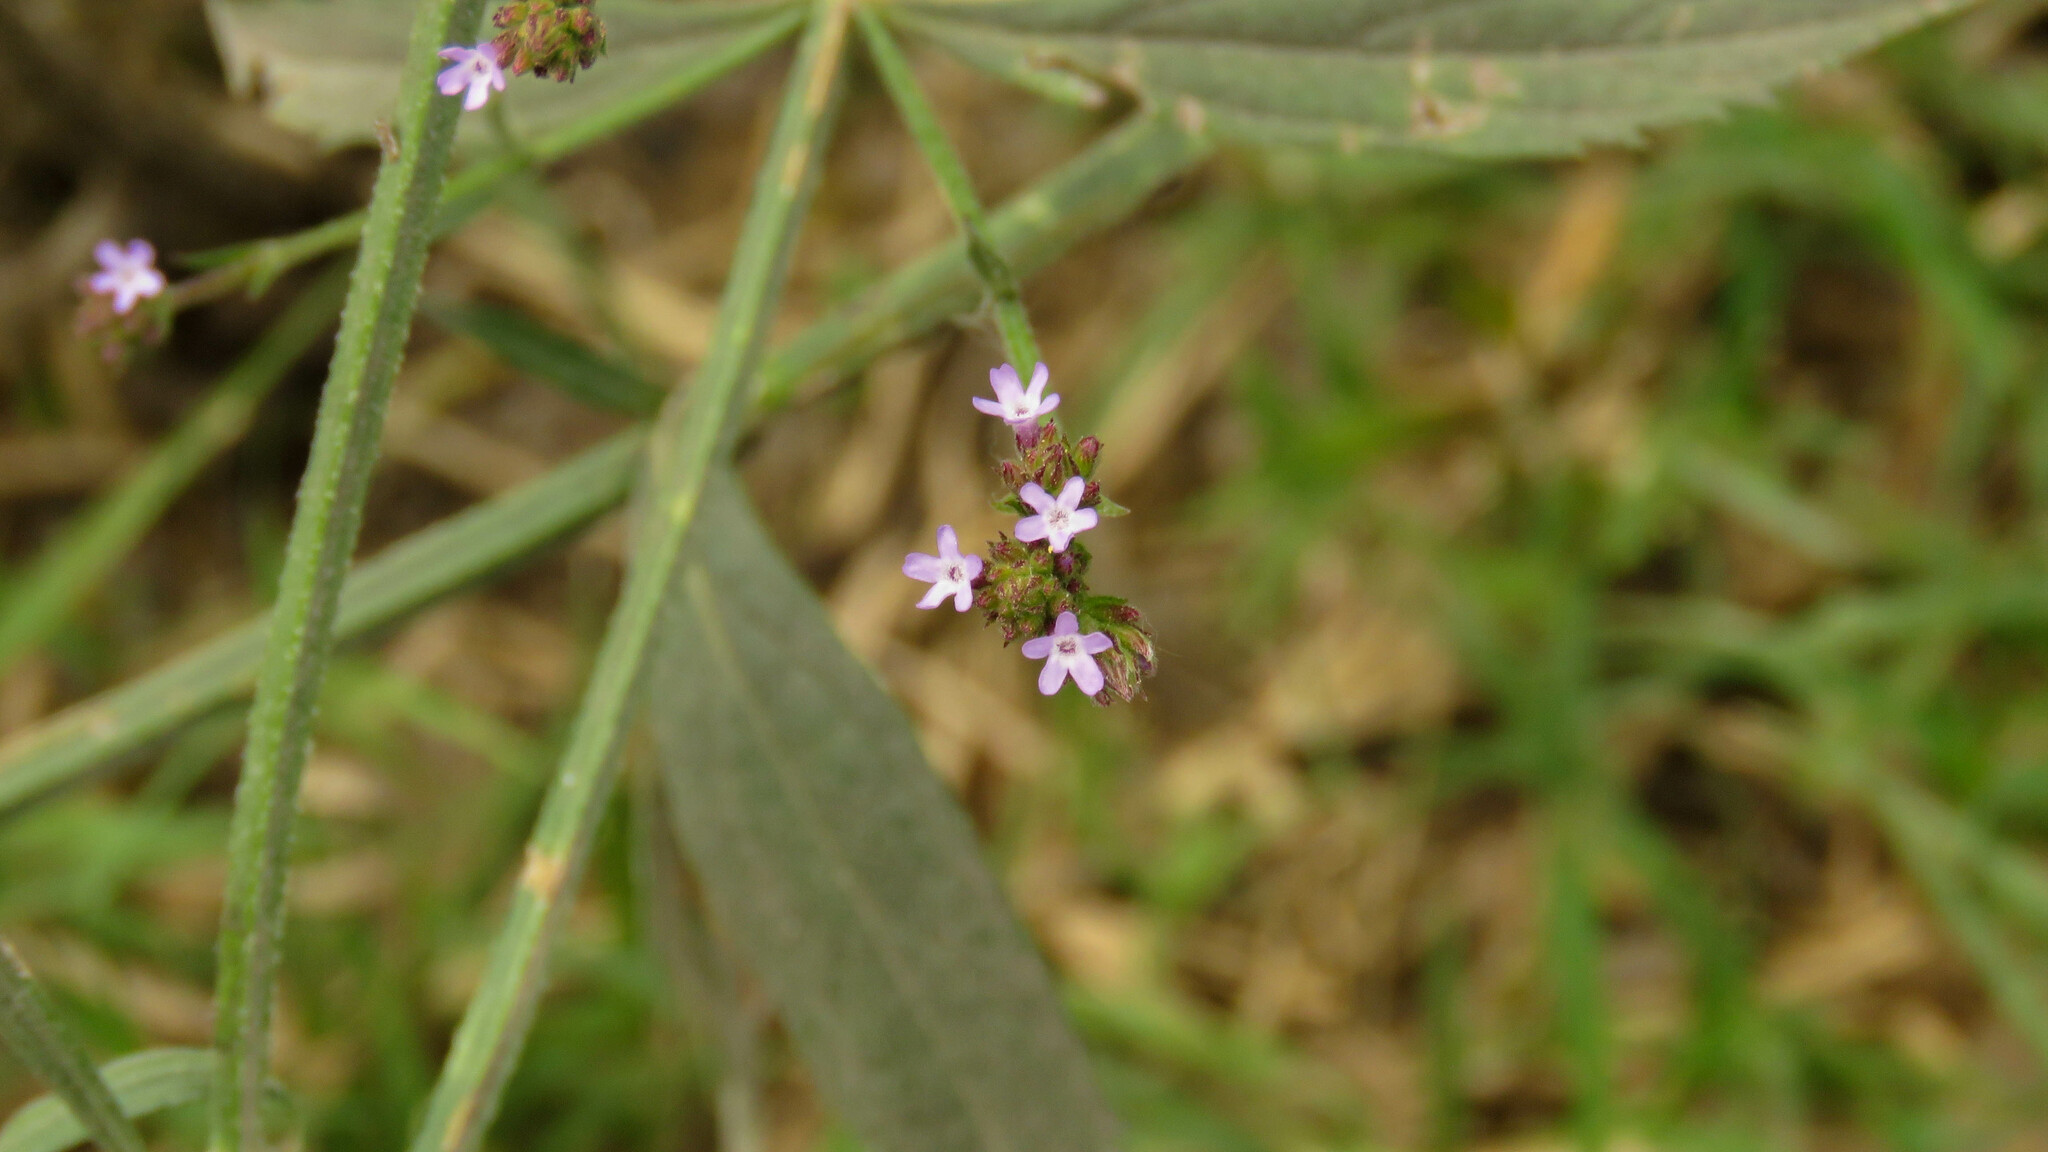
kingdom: Plantae
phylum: Tracheophyta
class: Magnoliopsida
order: Lamiales
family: Verbenaceae
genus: Verbena
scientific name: Verbena litoralis
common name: Seashore vervain
